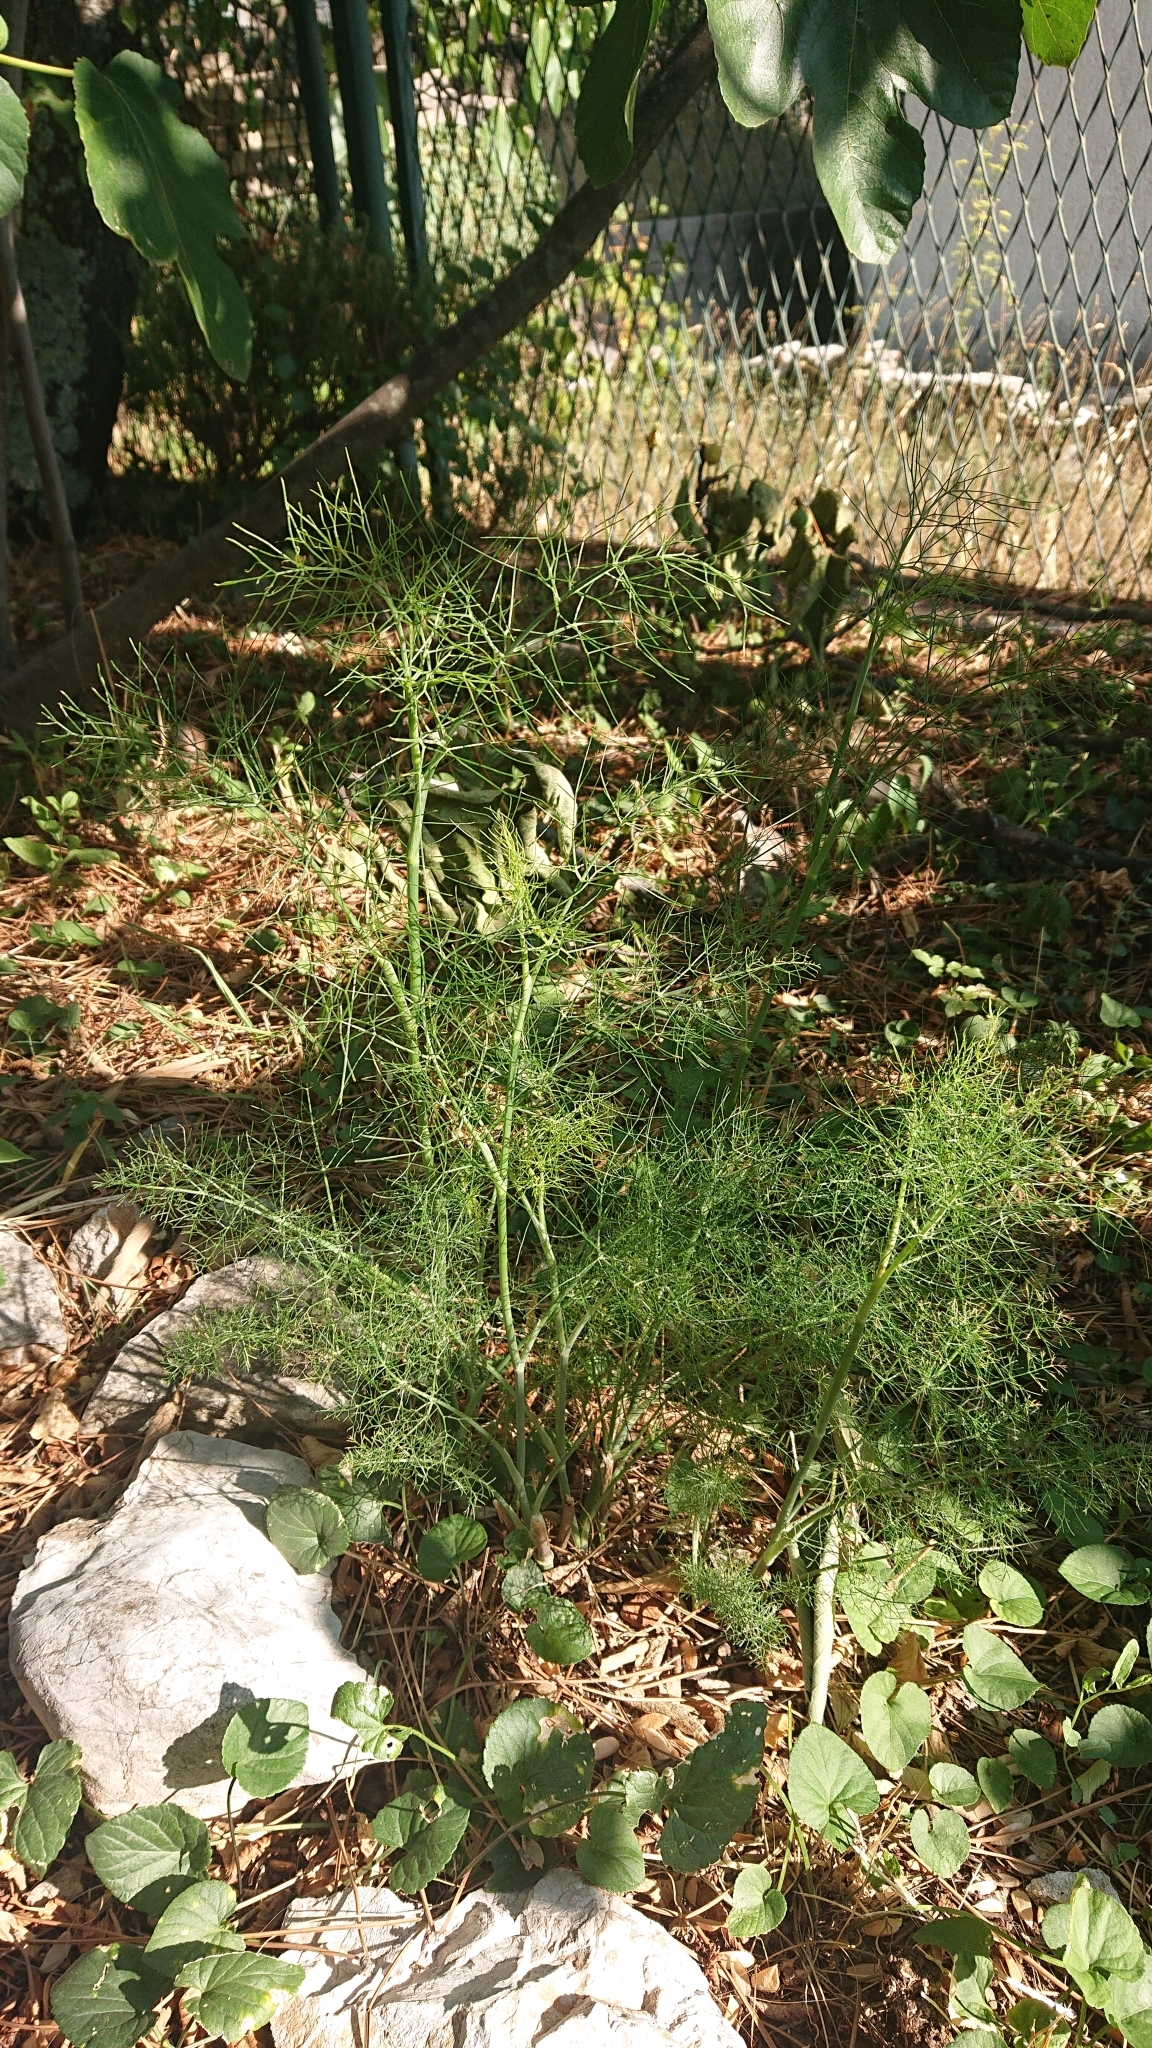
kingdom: Plantae
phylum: Tracheophyta
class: Magnoliopsida
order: Apiales
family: Apiaceae
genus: Foeniculum
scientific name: Foeniculum vulgare
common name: Fennel
